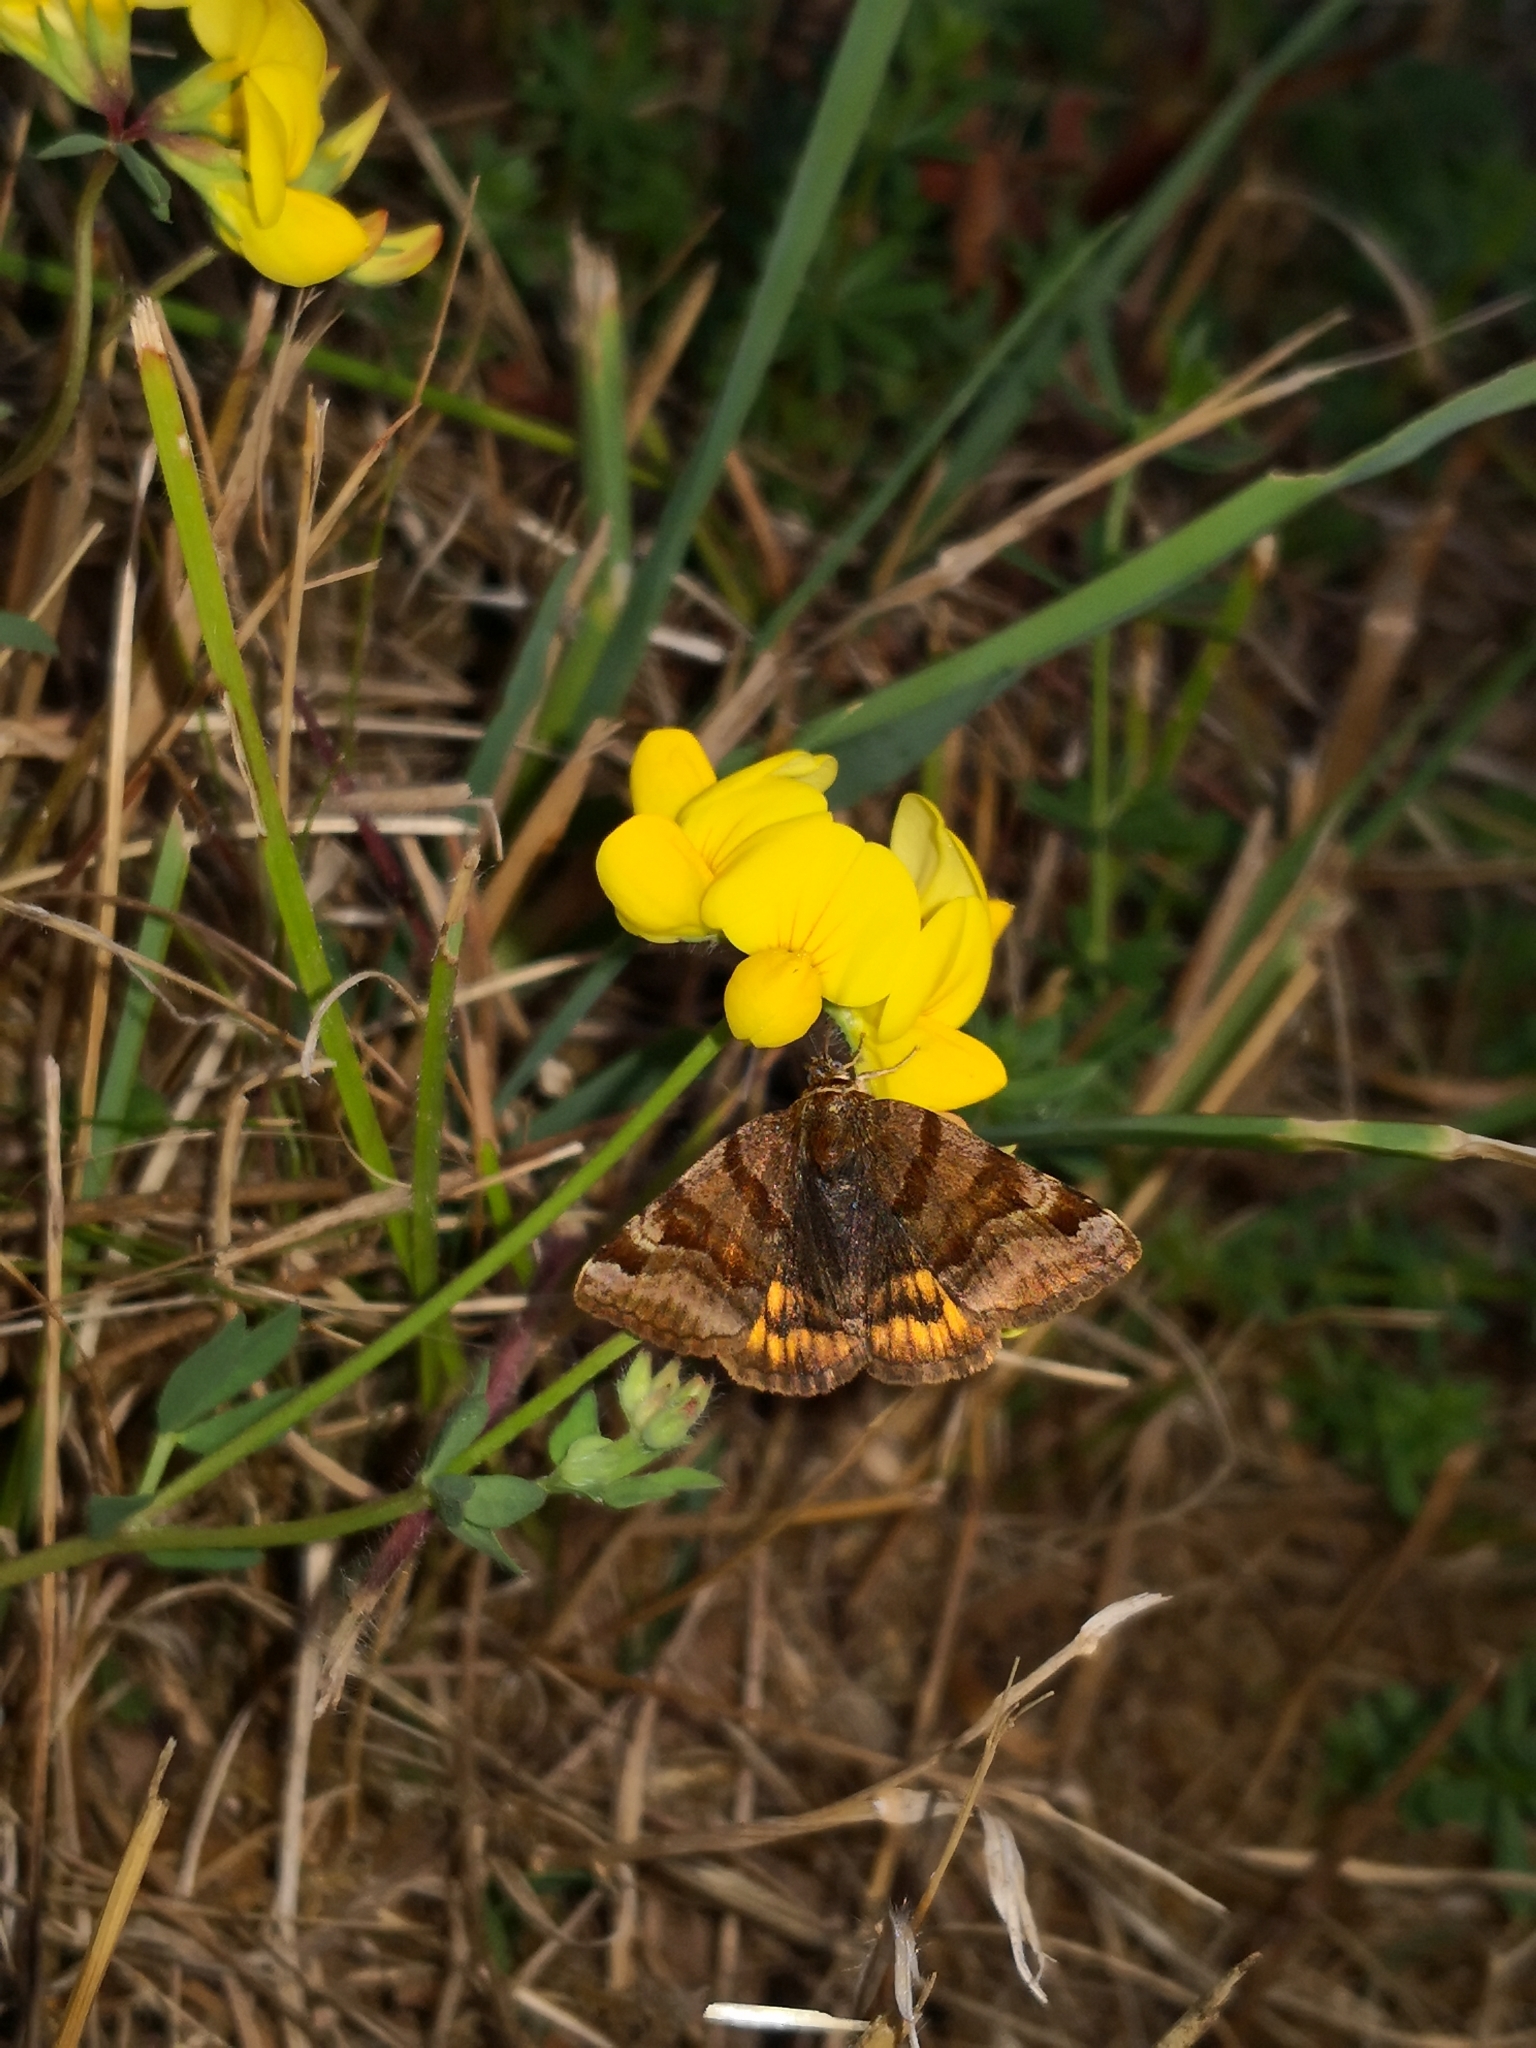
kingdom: Animalia
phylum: Arthropoda
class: Insecta
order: Lepidoptera
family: Erebidae
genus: Euclidia
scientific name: Euclidia glyphica
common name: Burnet companion
